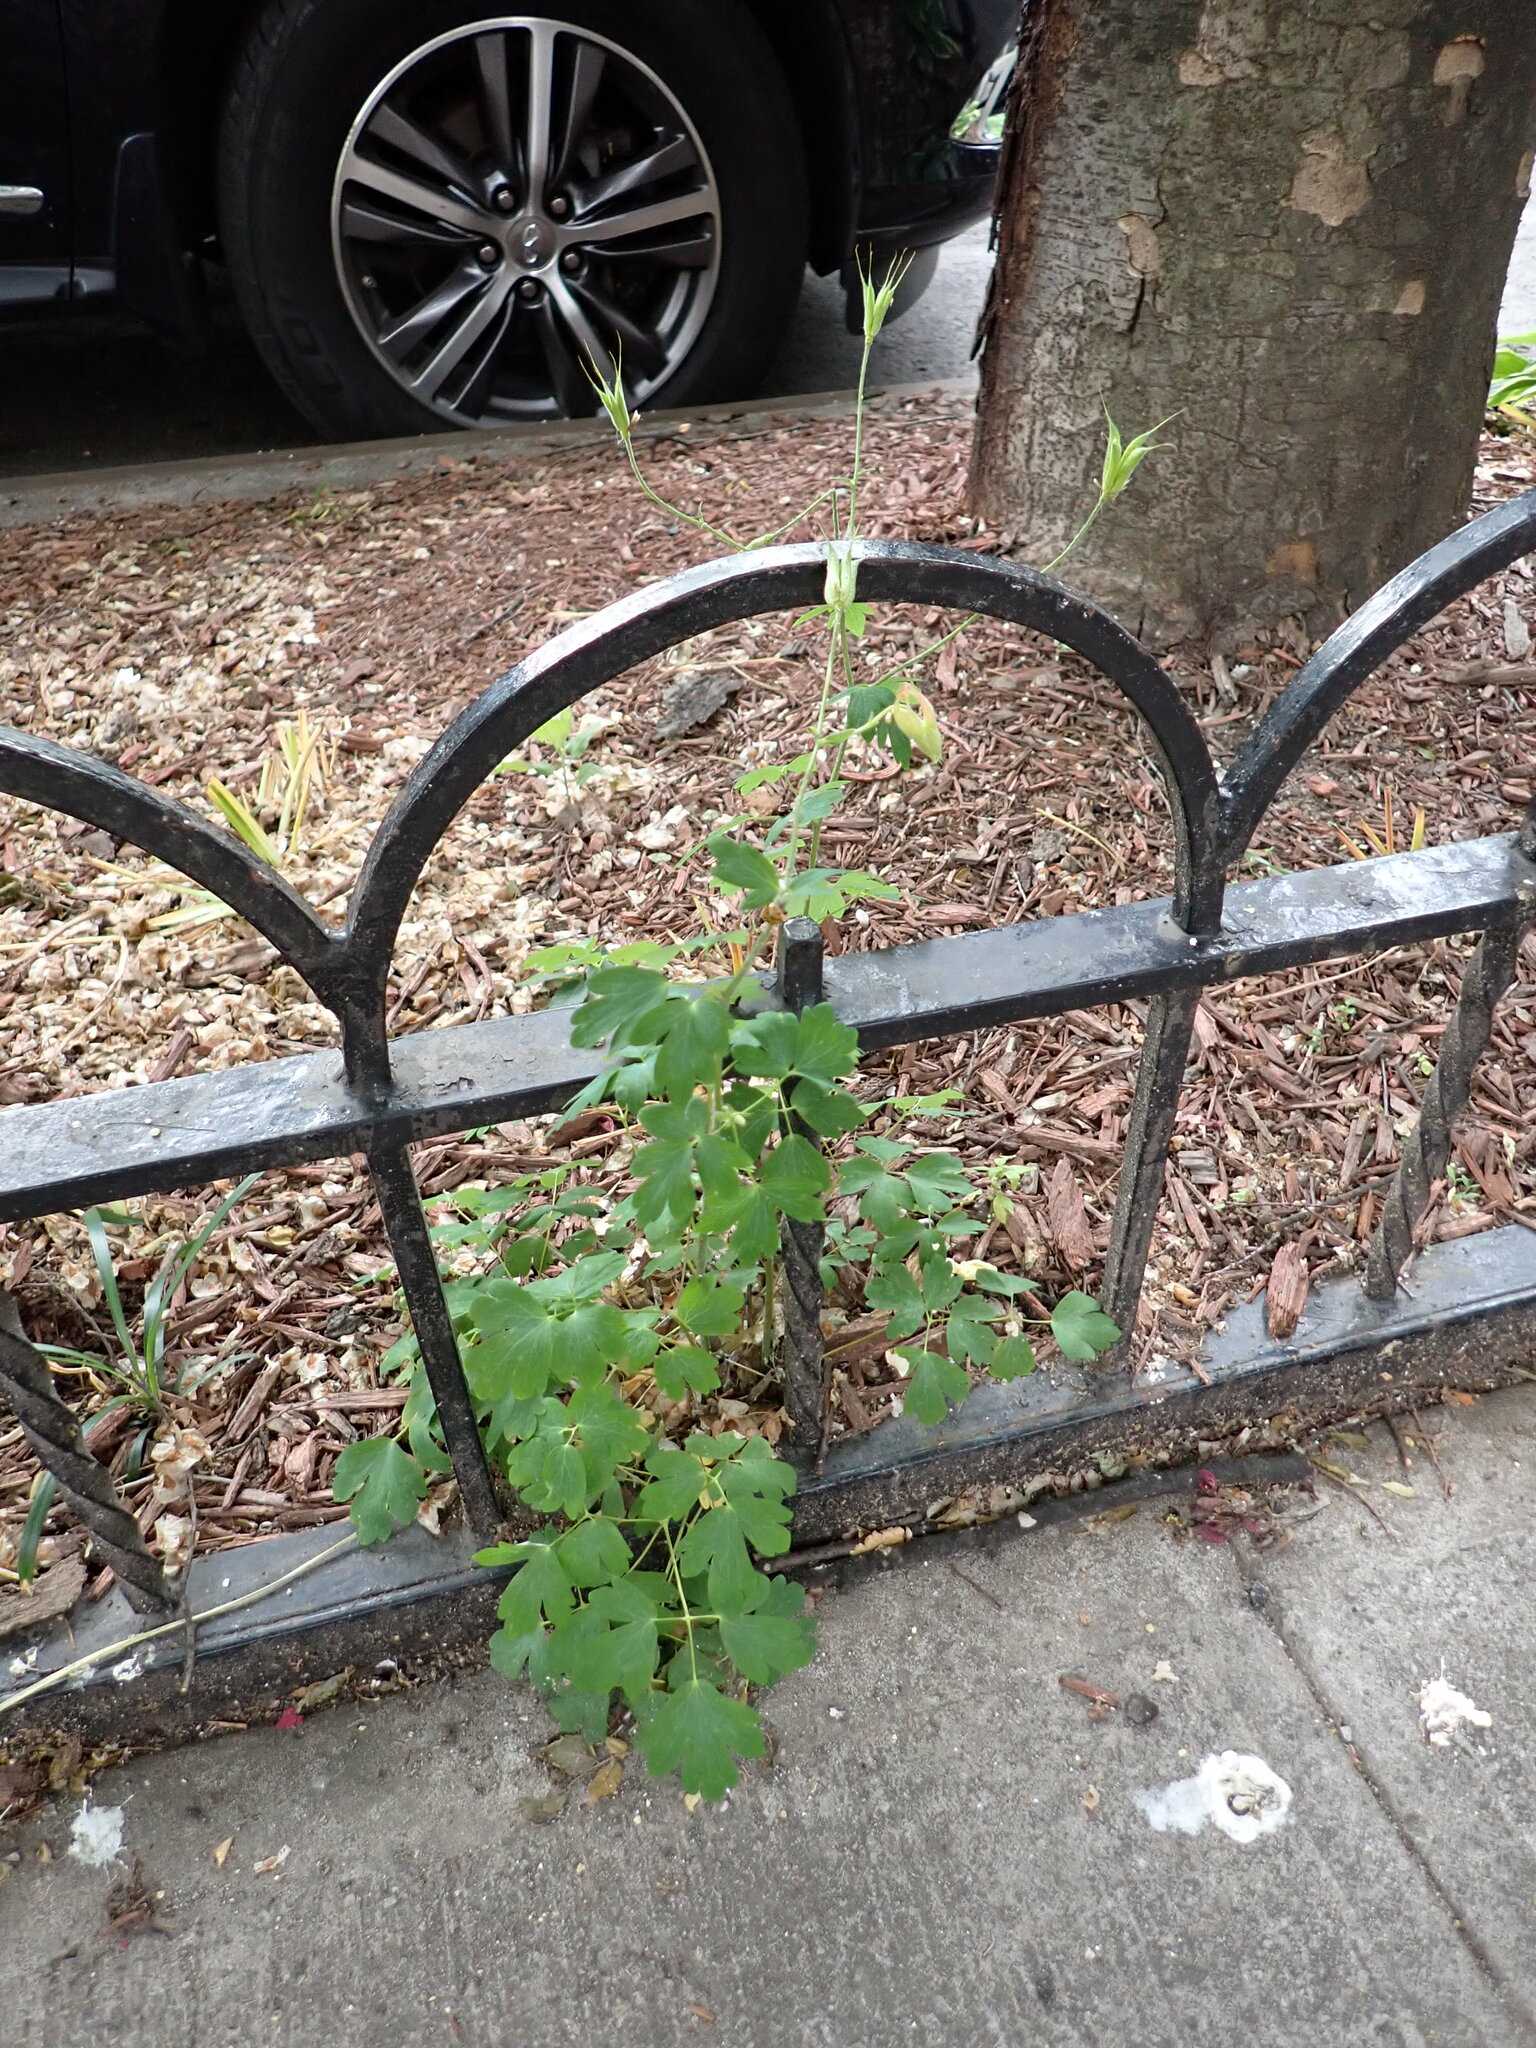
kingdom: Plantae
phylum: Tracheophyta
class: Magnoliopsida
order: Ranunculales
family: Ranunculaceae
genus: Aquilegia
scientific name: Aquilegia canadensis
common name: American columbine
